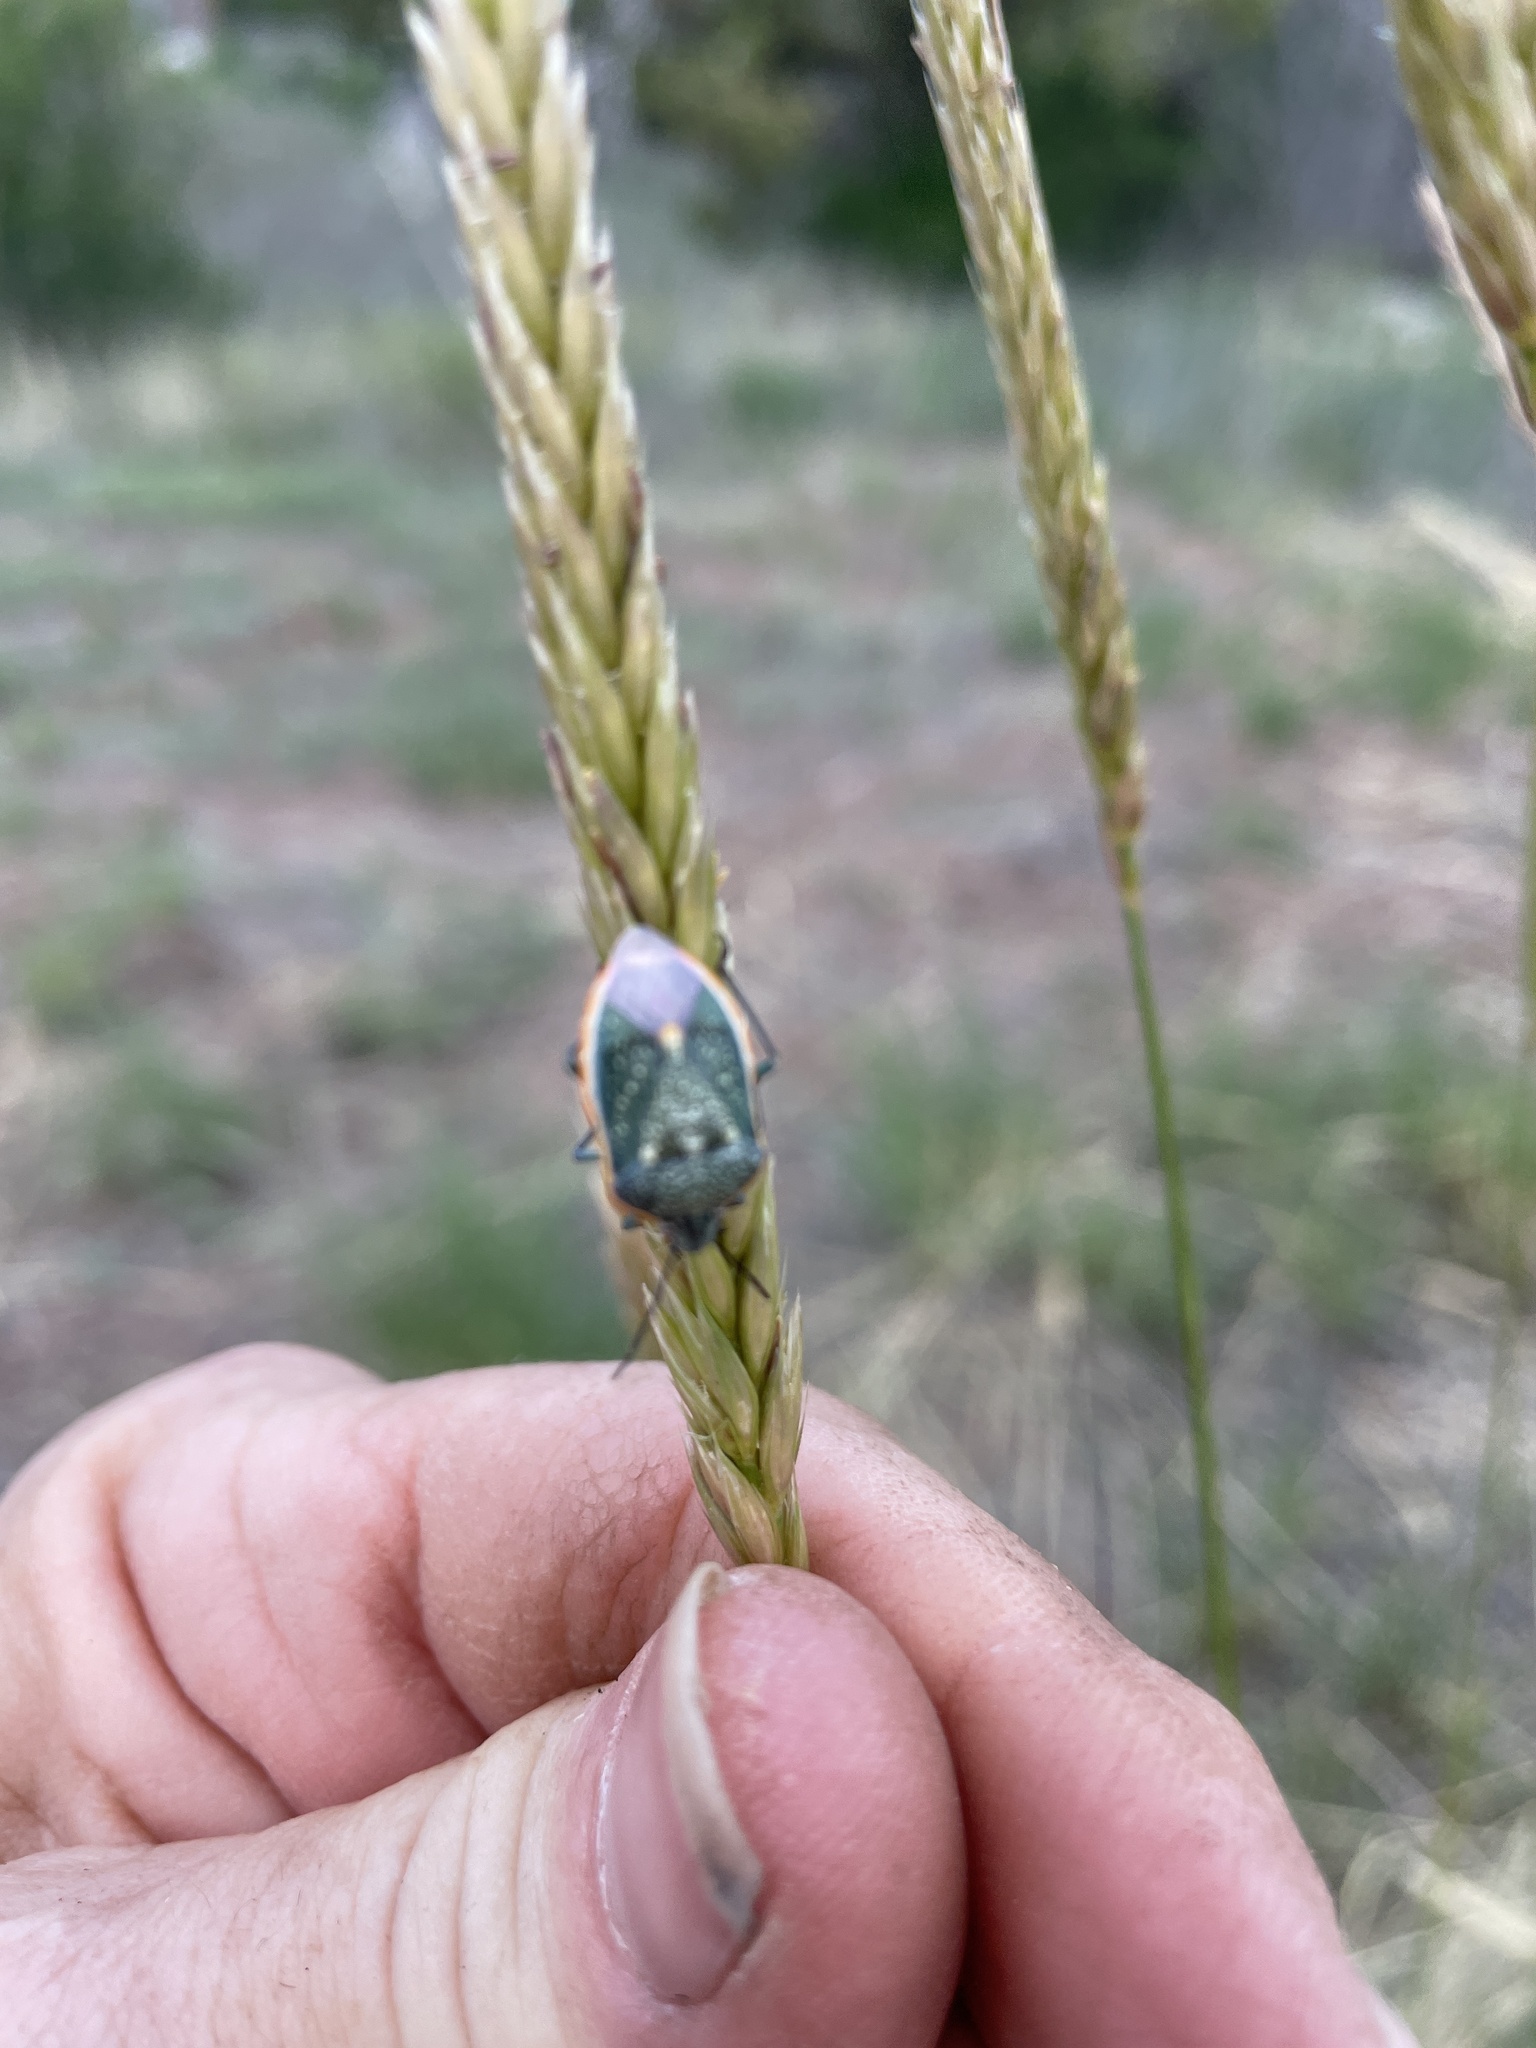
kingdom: Animalia
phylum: Arthropoda
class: Insecta
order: Hemiptera
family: Pentatomidae
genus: Chlorochroa
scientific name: Chlorochroa sayi
